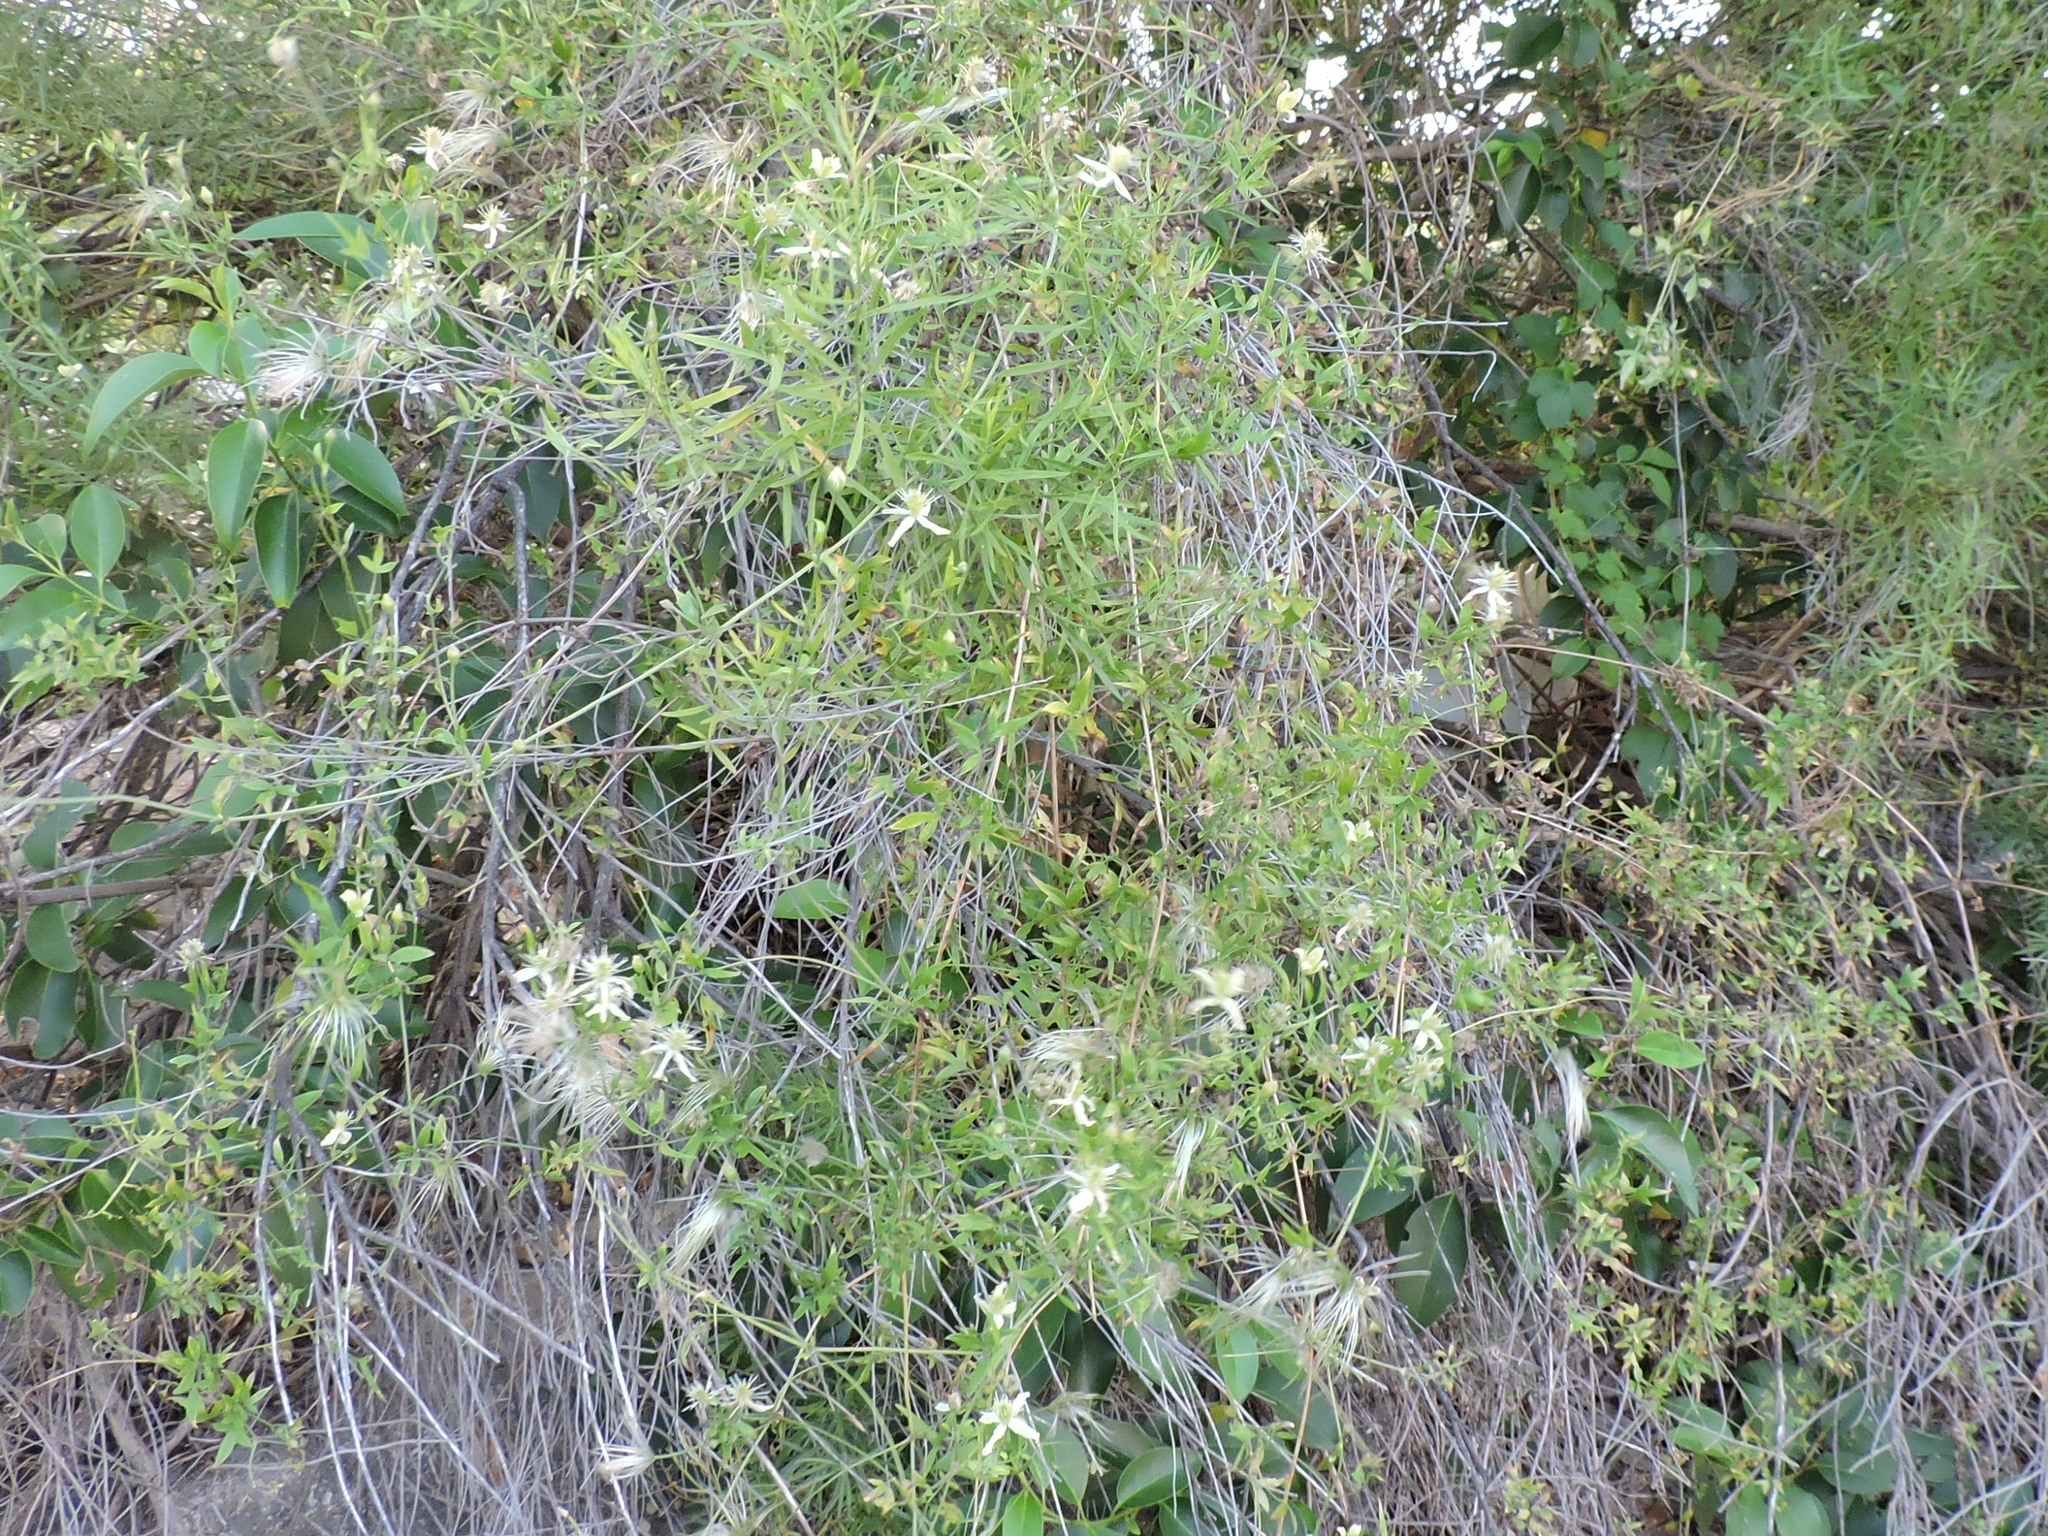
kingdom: Plantae
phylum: Tracheophyta
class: Magnoliopsida
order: Ranunculales
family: Ranunculaceae
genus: Clematis
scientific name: Clematis drummondii
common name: Texas virgin's bower
